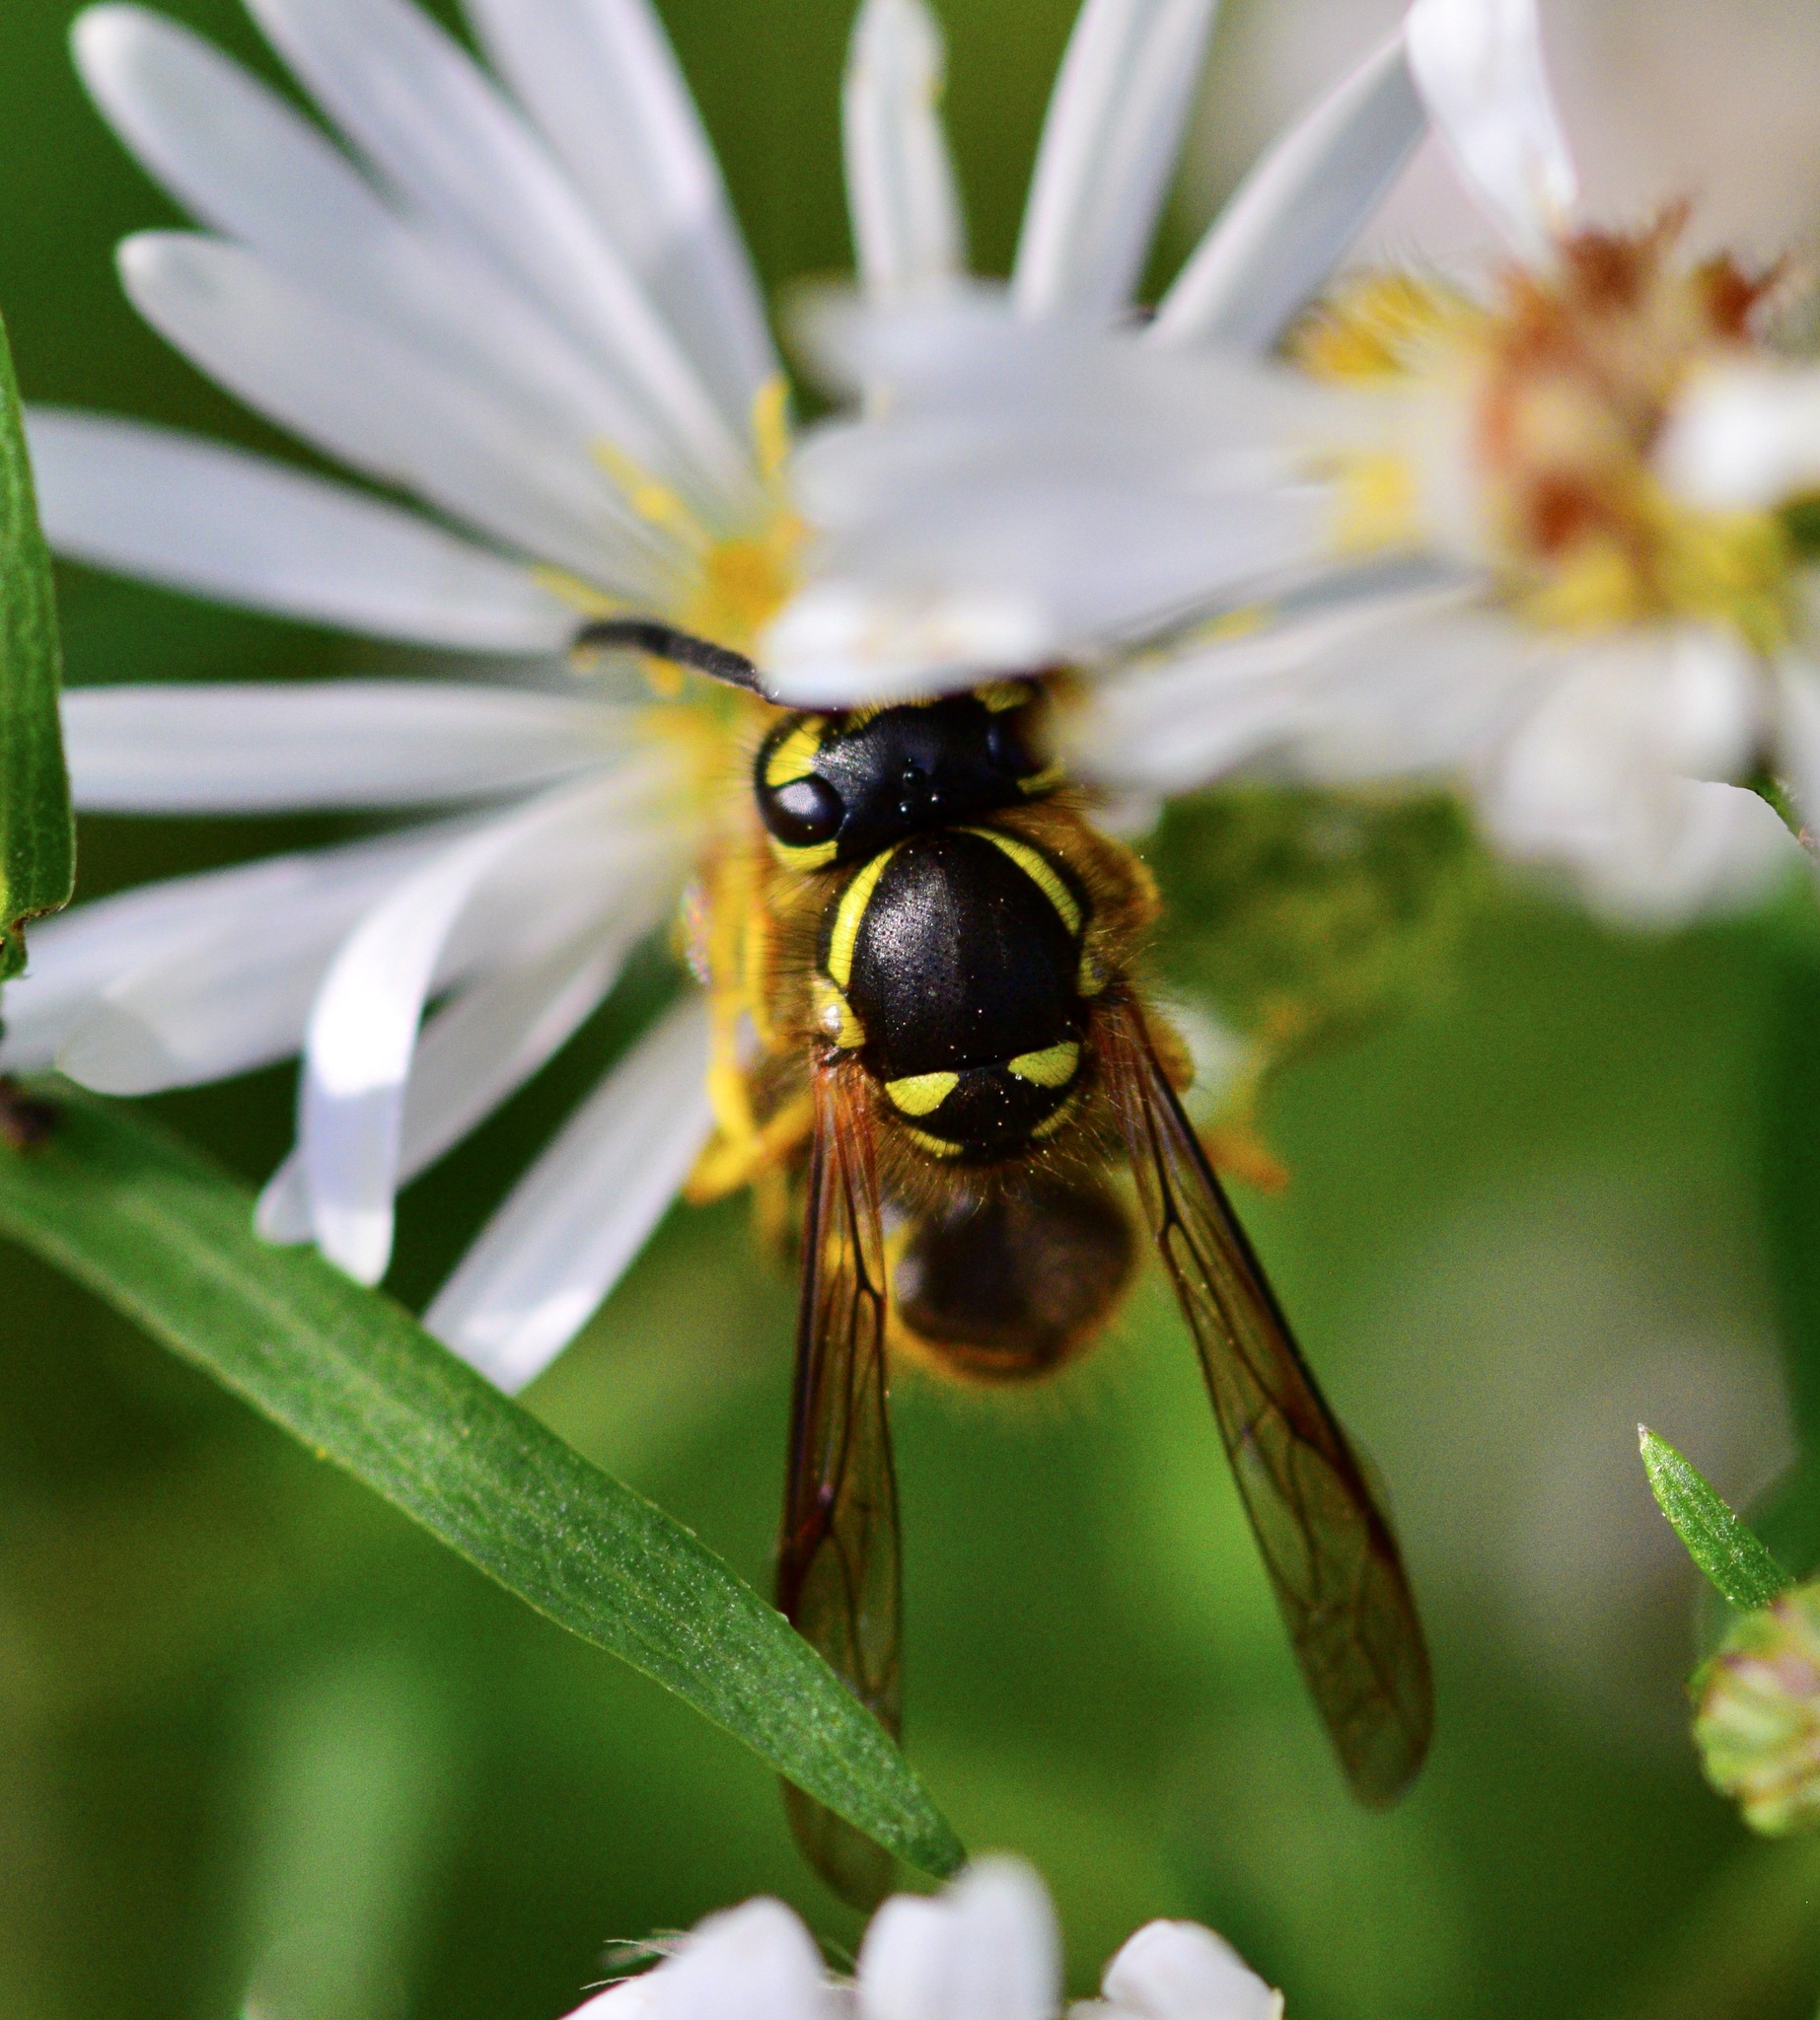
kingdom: Animalia
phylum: Arthropoda
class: Insecta
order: Hymenoptera
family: Vespidae
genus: Vespula
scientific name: Vespula maculifrons
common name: Eastern yellowjacket
